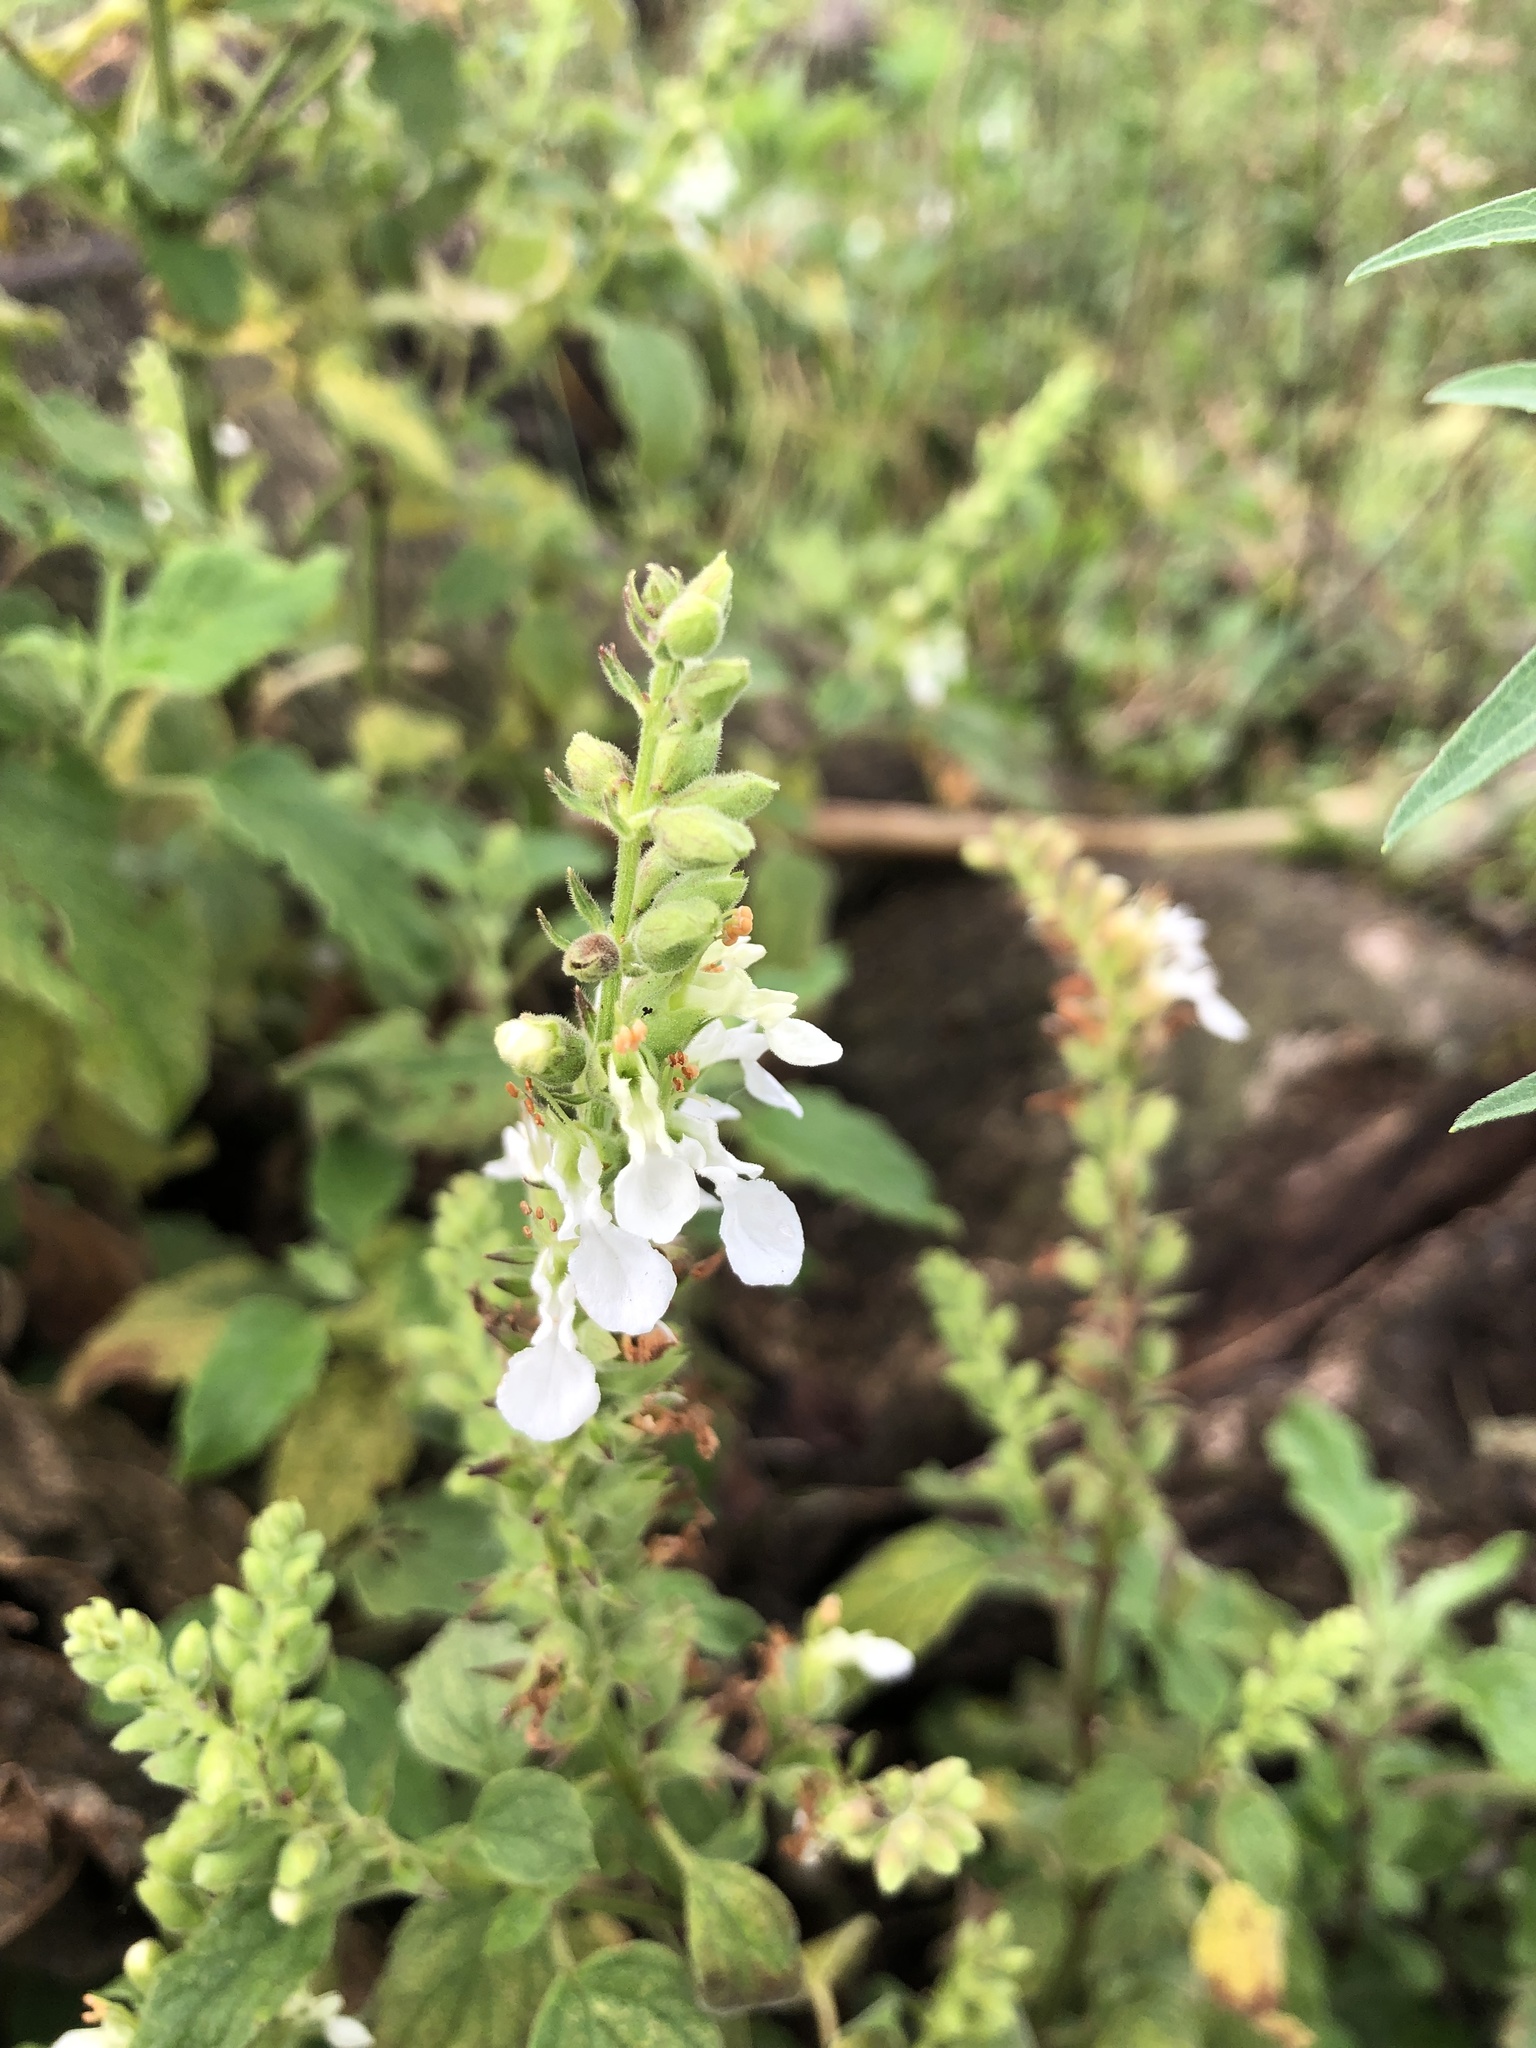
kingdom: Plantae
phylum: Tracheophyta
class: Magnoliopsida
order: Lamiales
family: Lamiaceae
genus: Teucrium
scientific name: Teucrium vesicarium
